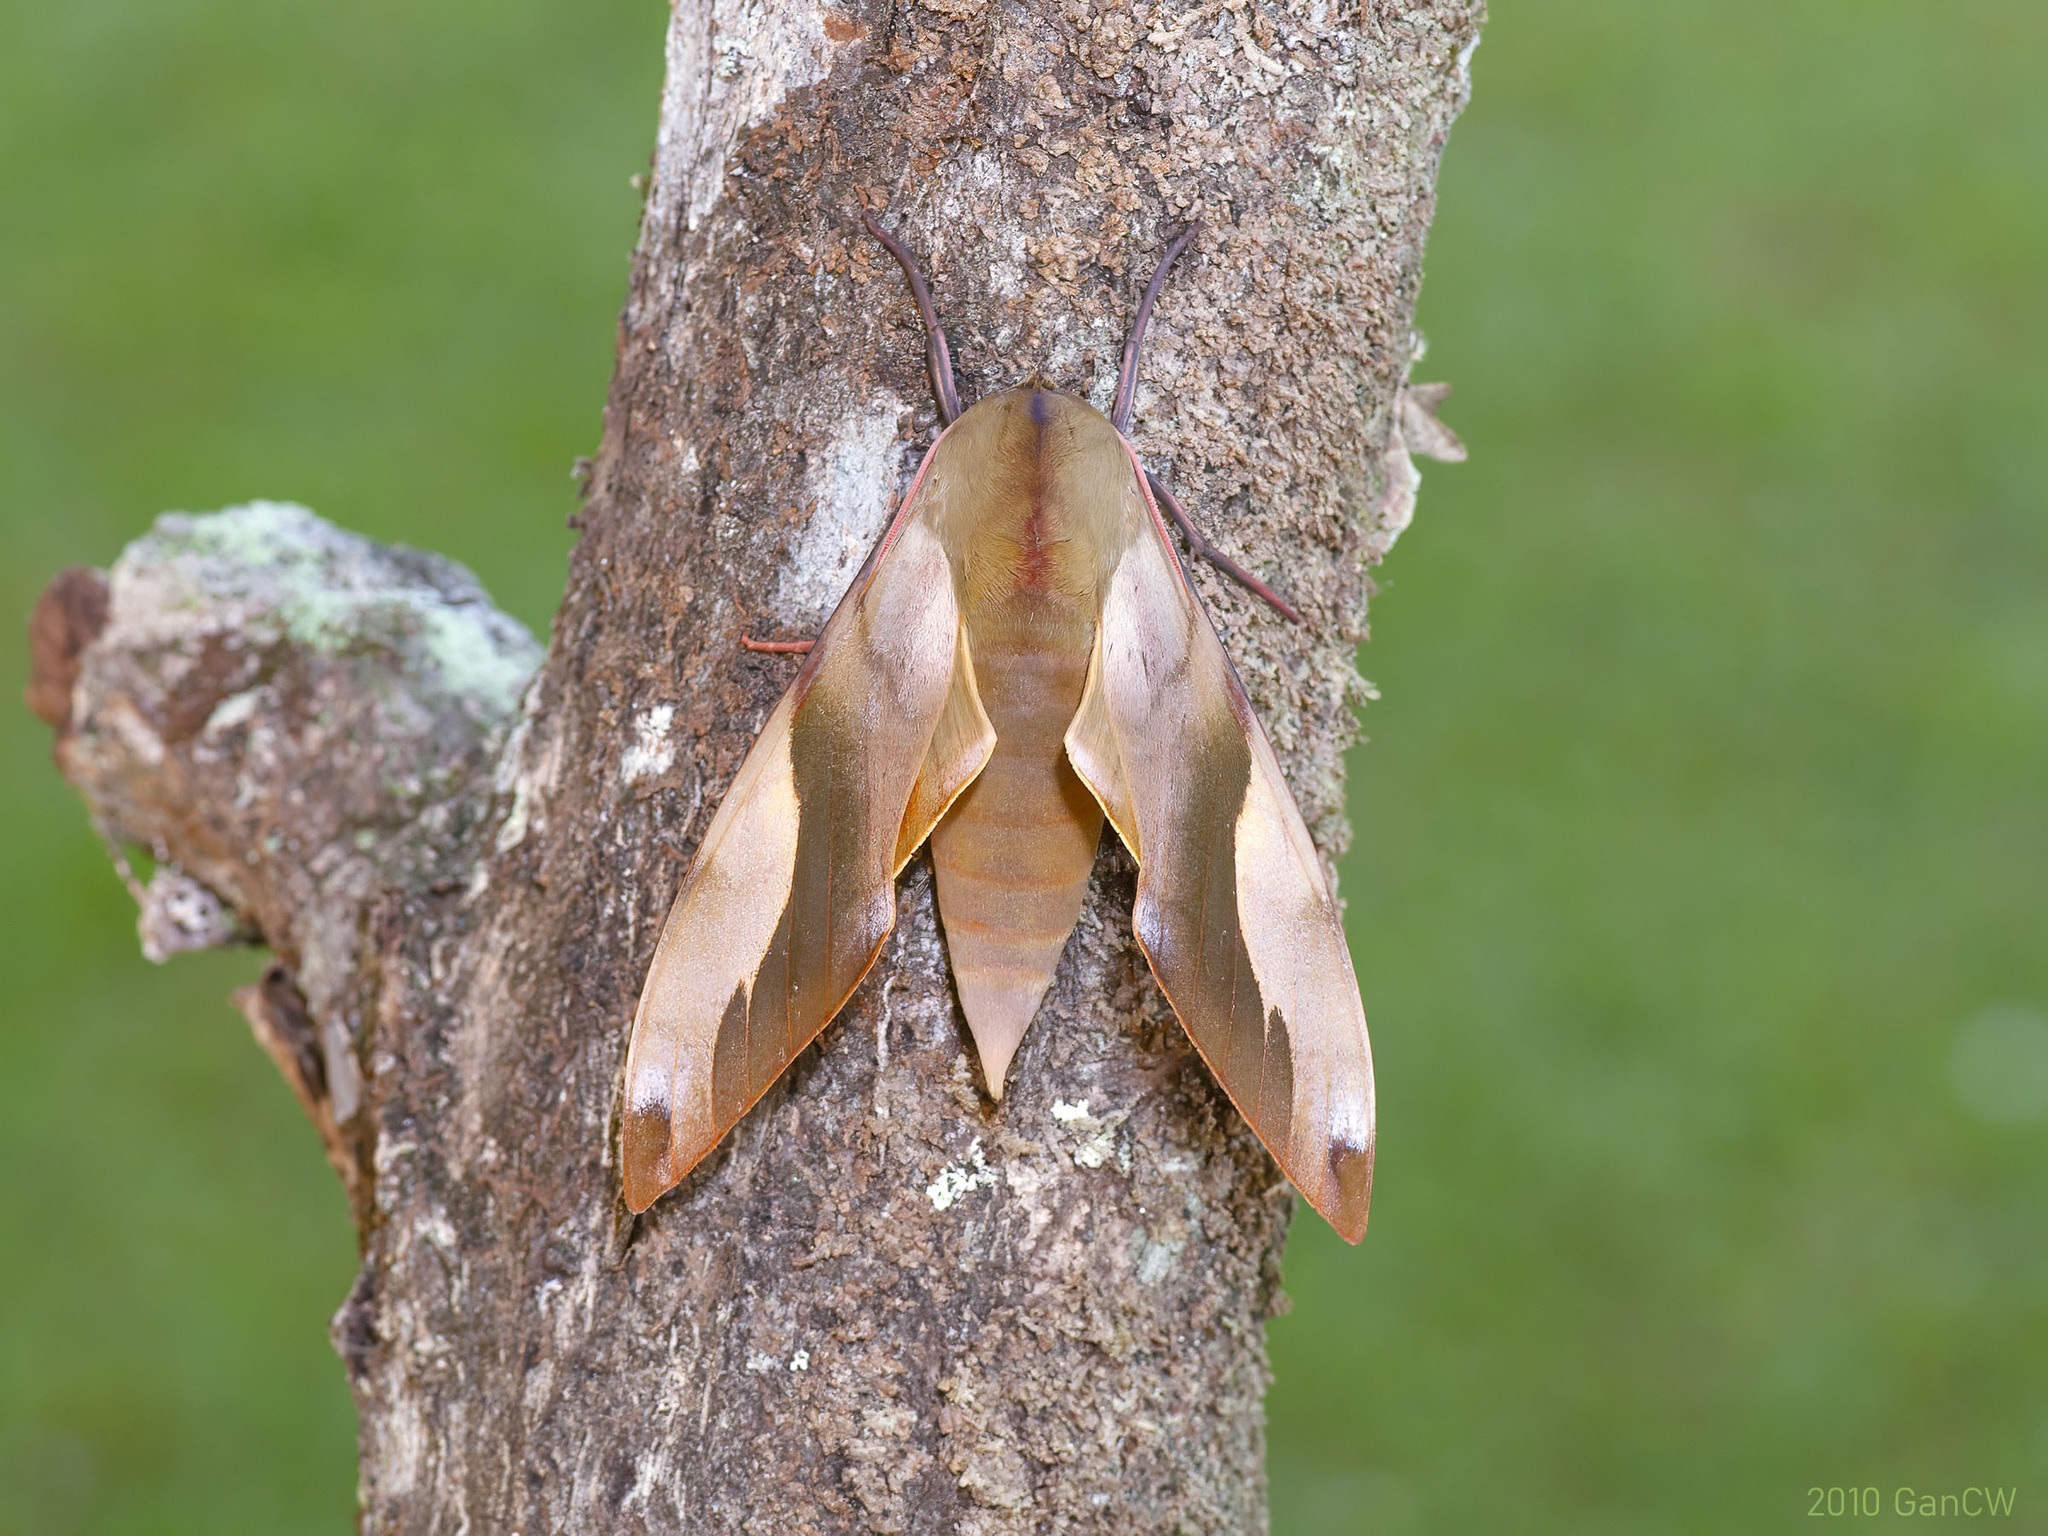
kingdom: Animalia
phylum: Arthropoda
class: Insecta
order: Lepidoptera
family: Sphingidae
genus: Clanis
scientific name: Clanis orhanti
